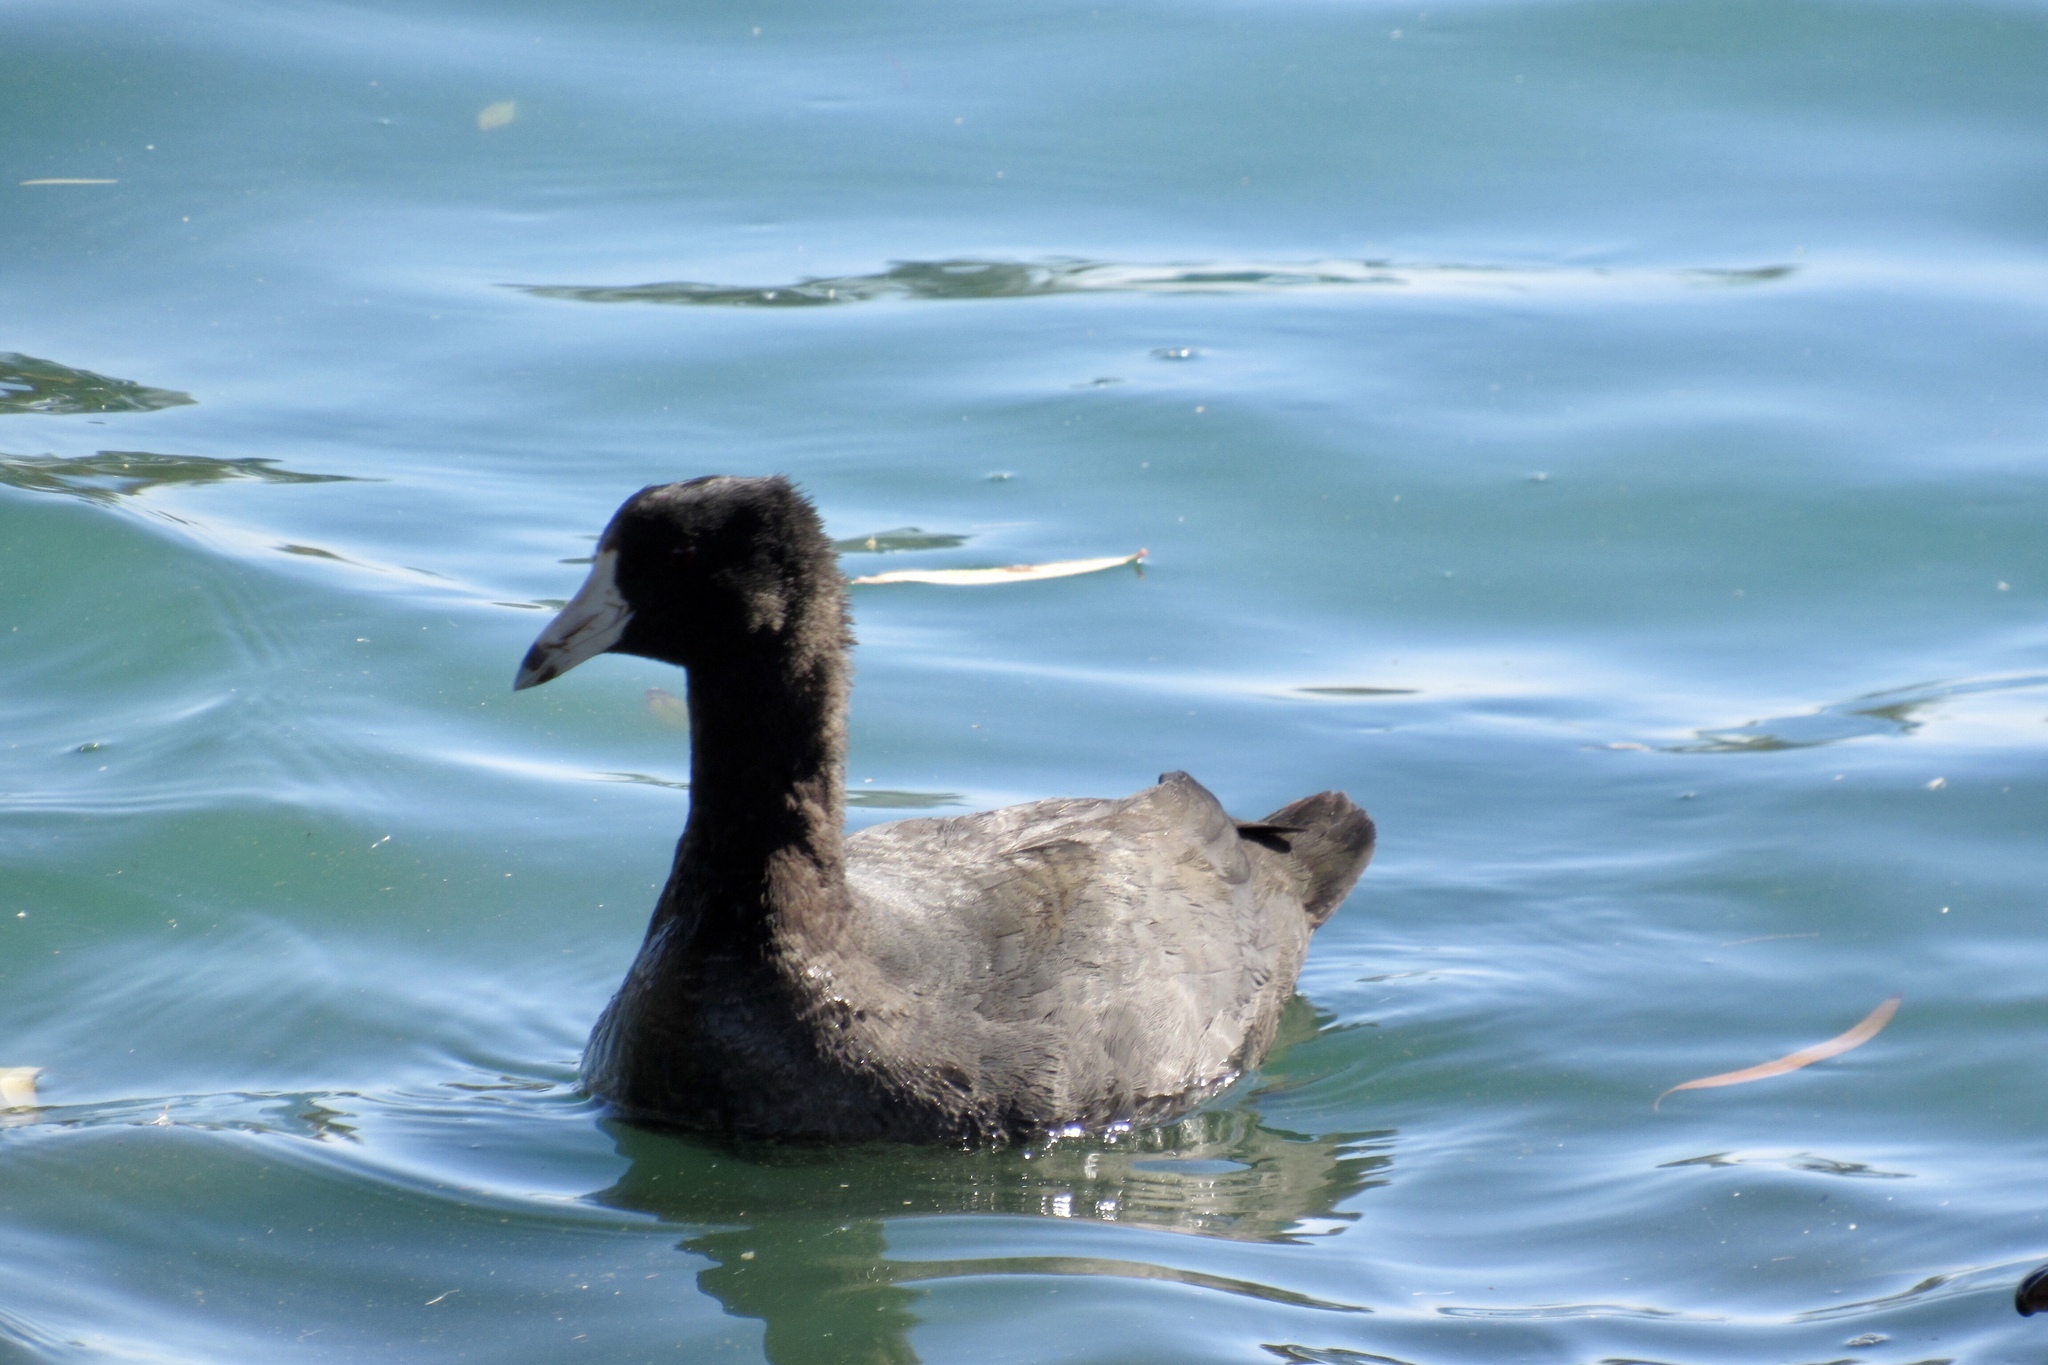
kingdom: Animalia
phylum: Chordata
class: Aves
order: Gruiformes
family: Rallidae
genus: Fulica
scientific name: Fulica americana
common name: American coot
